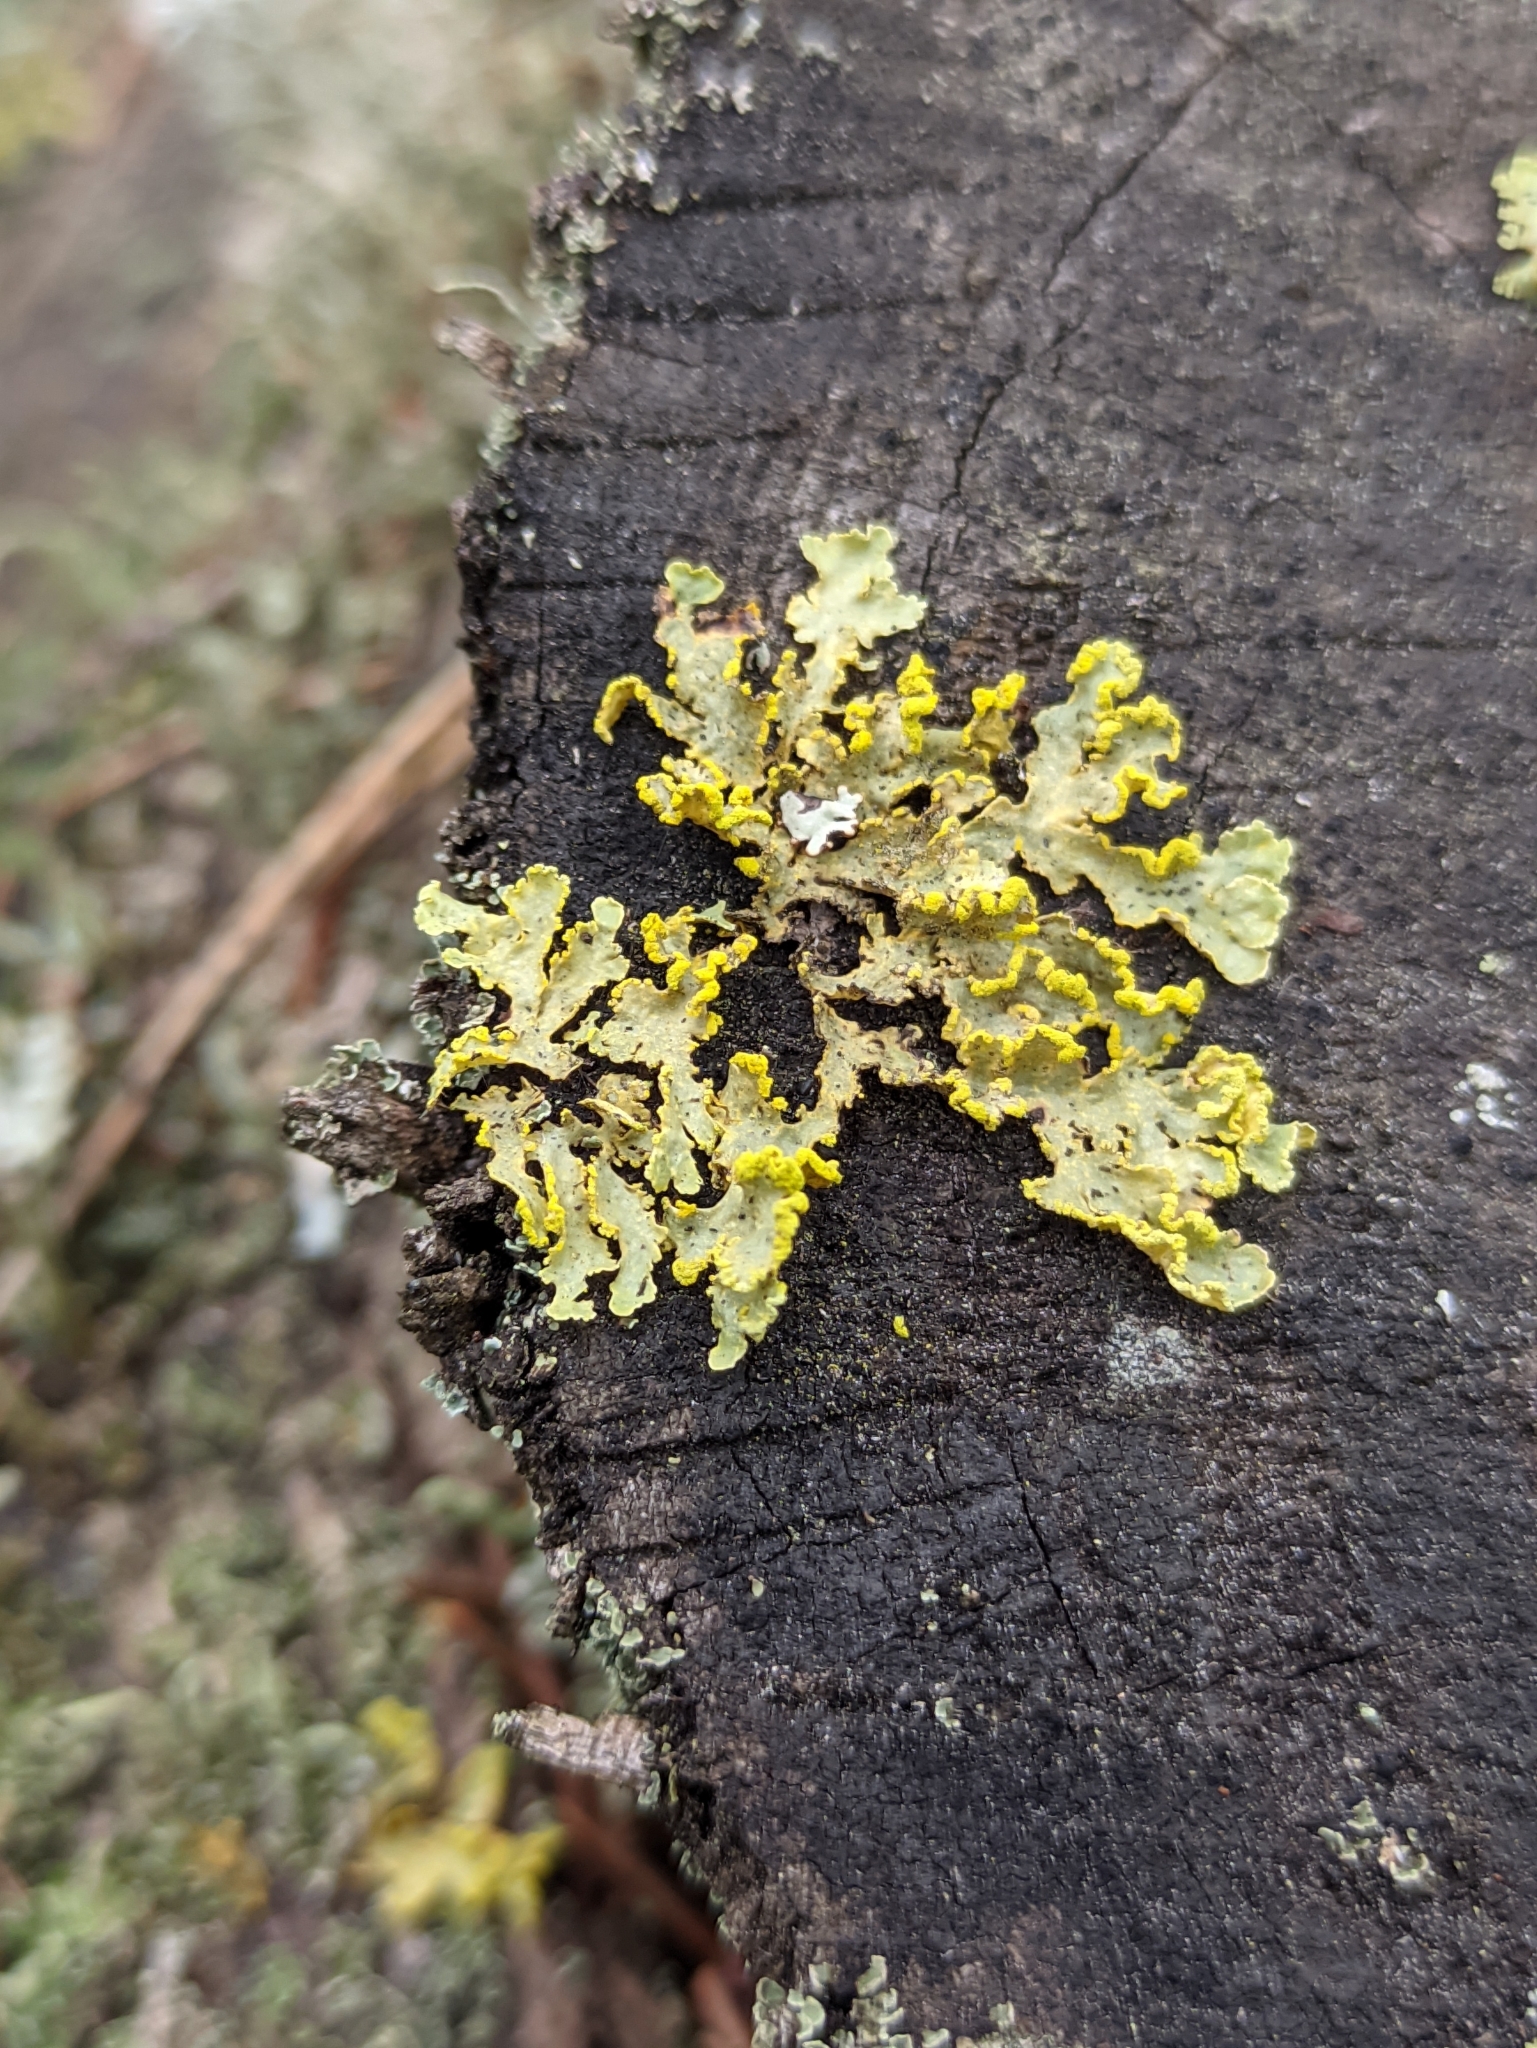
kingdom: Fungi
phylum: Ascomycota
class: Lecanoromycetes
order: Lecanorales
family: Parmeliaceae
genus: Vulpicida
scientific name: Vulpicida pinastri
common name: Powdered sunshine lichen
